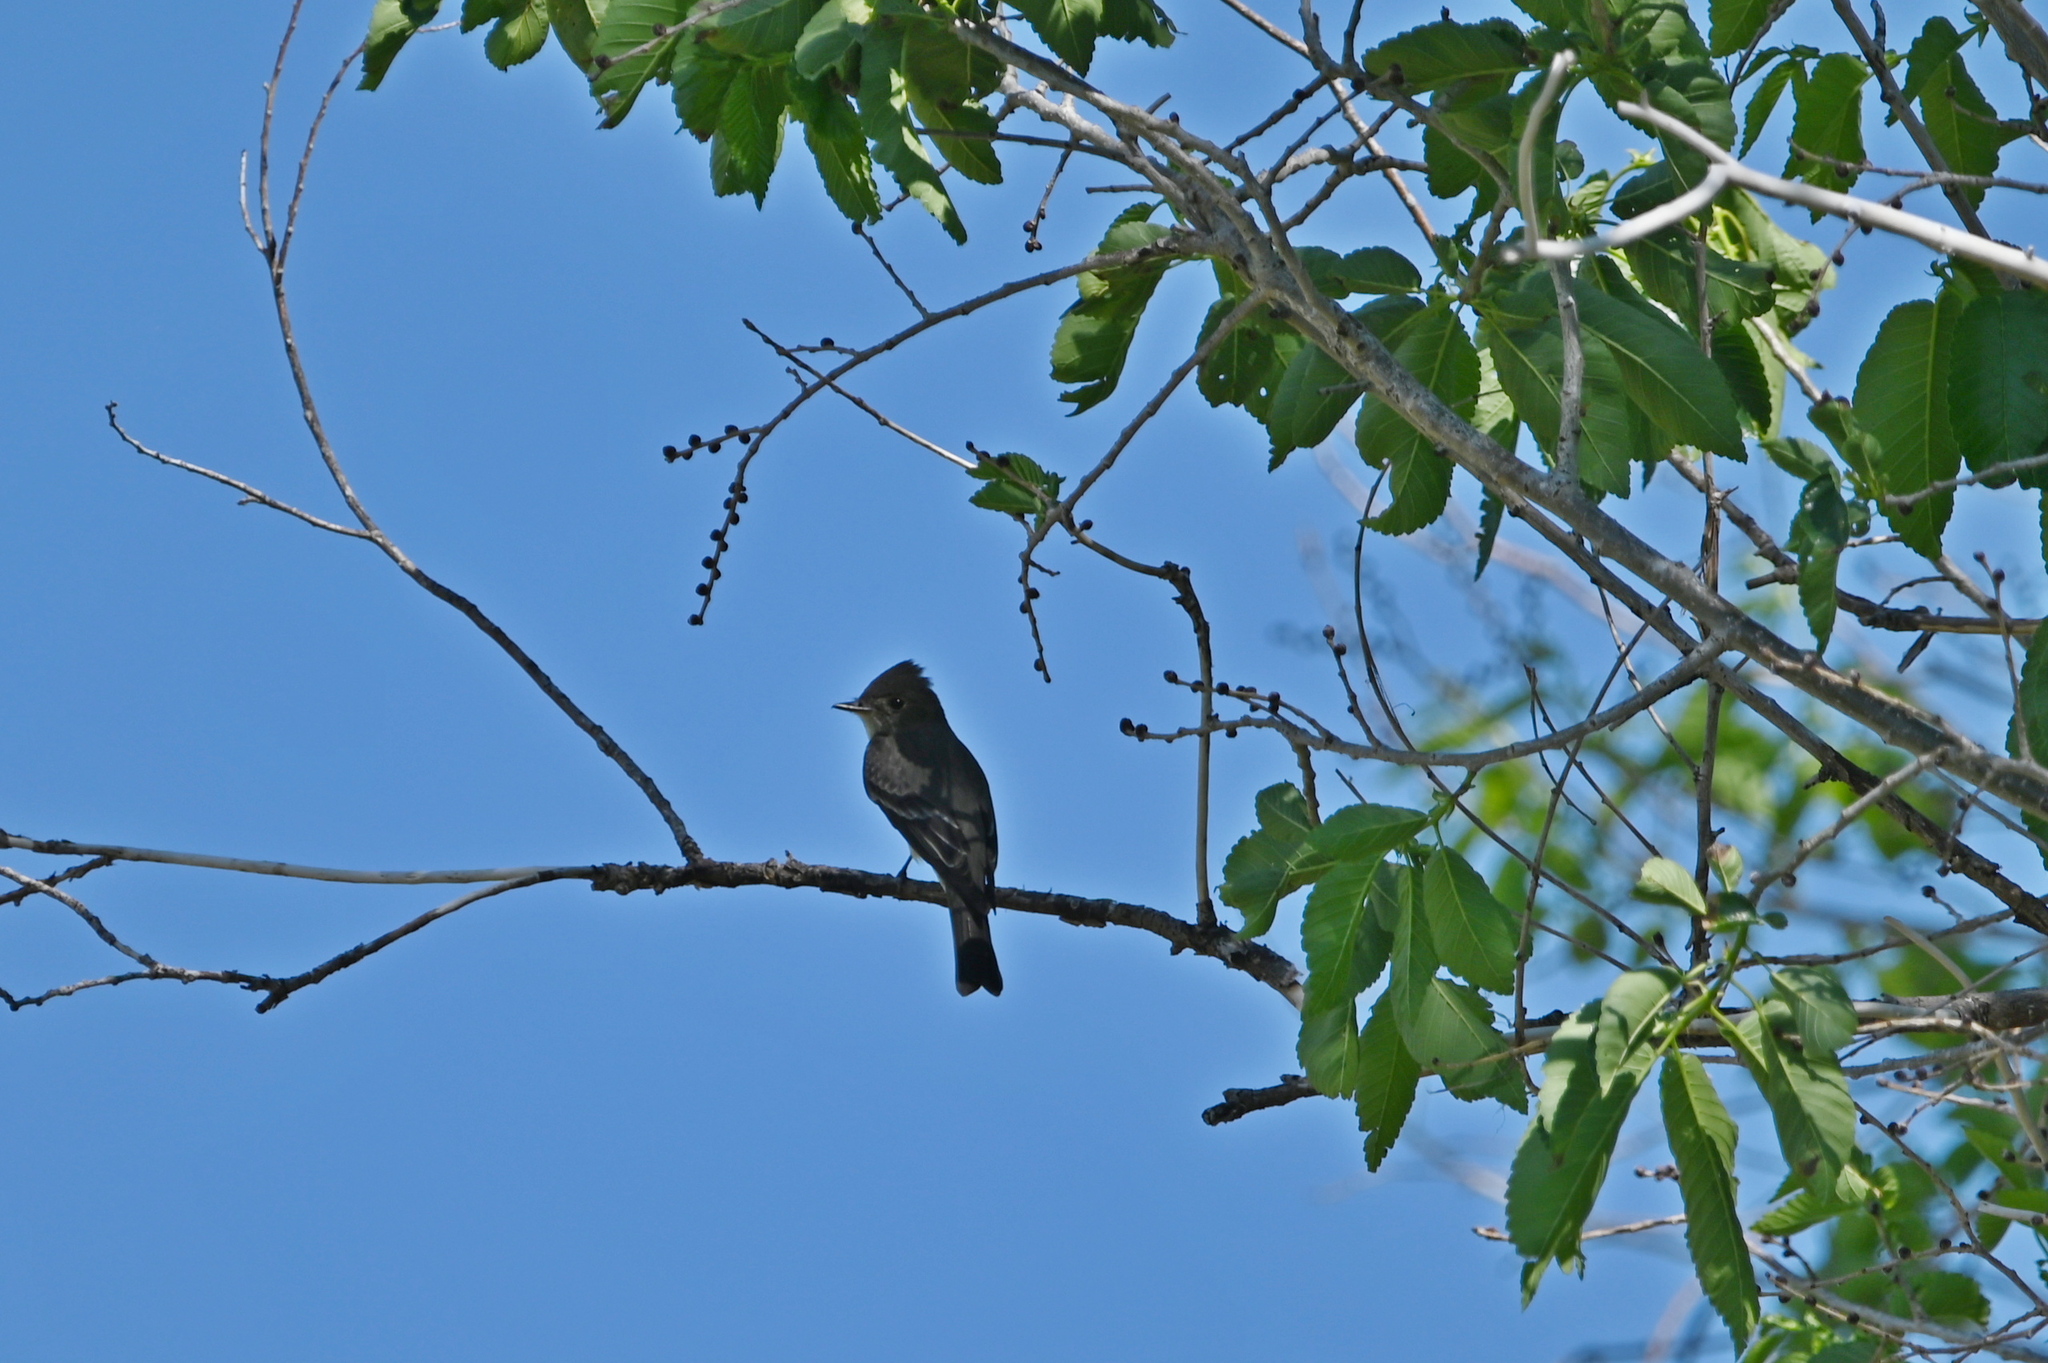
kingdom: Animalia
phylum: Chordata
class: Aves
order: Passeriformes
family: Tyrannidae
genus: Contopus
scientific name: Contopus sordidulus
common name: Western wood-pewee
